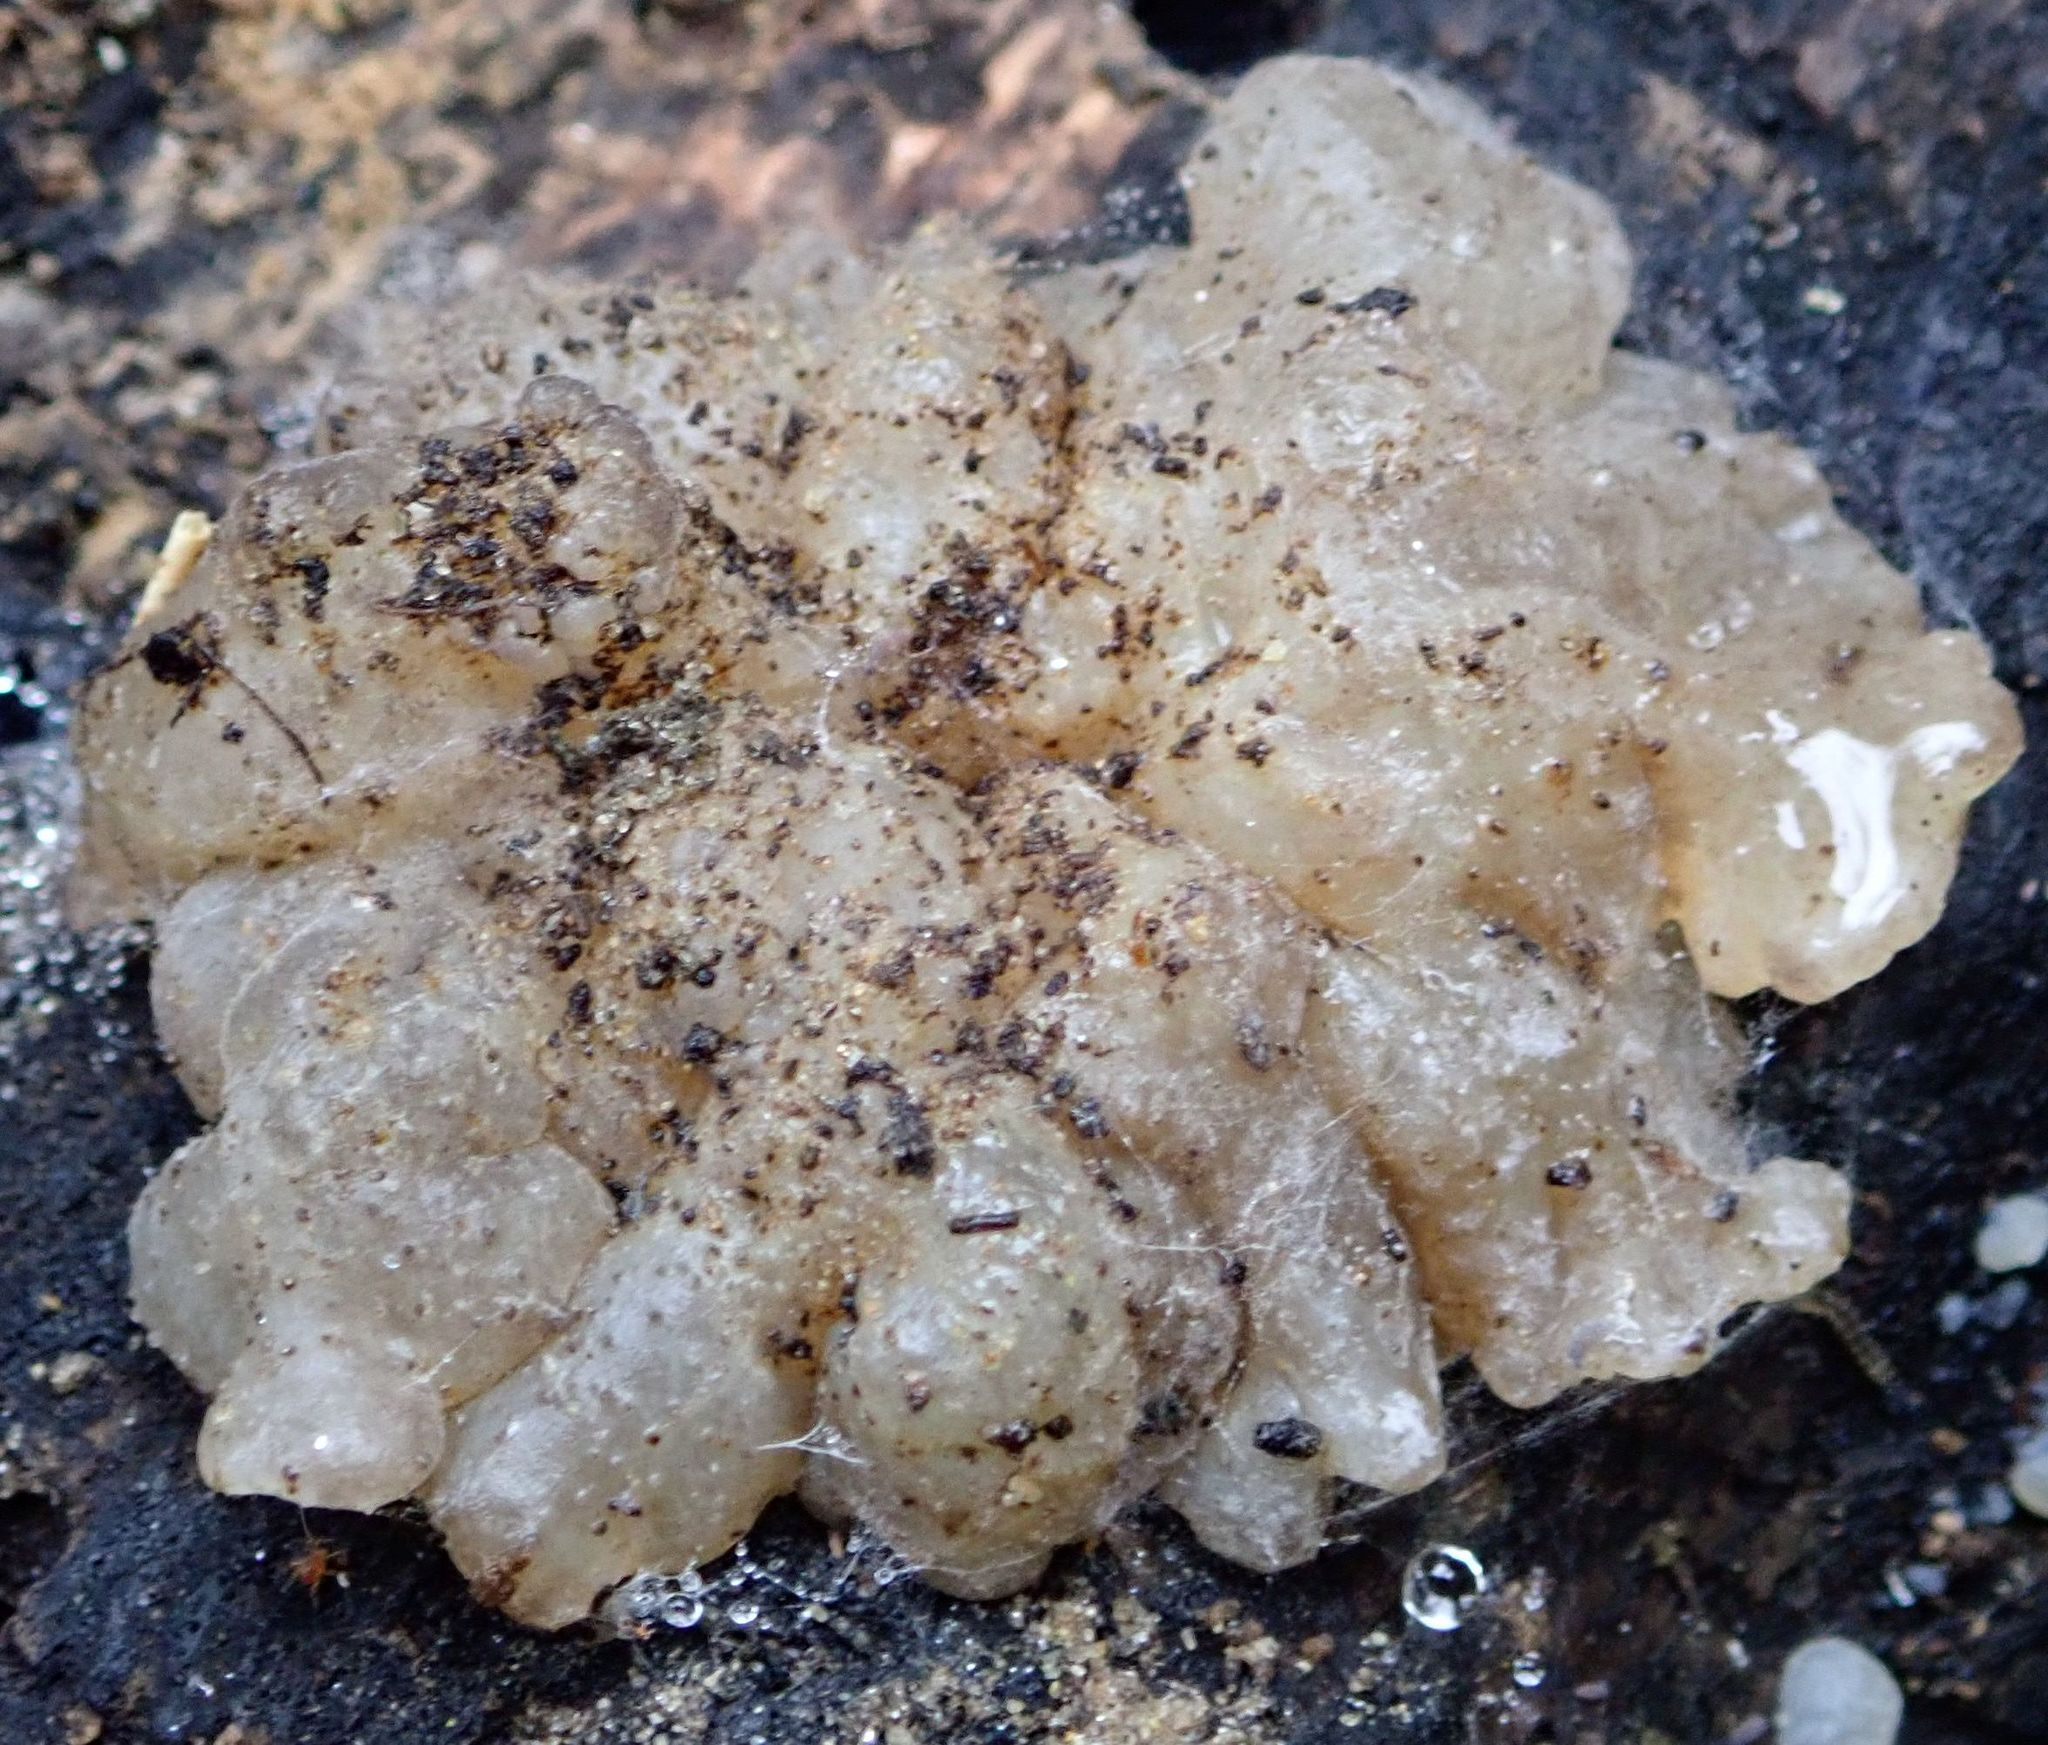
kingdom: Fungi
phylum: Basidiomycota
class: Agaricomycetes
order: Auriculariales
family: Auriculariaceae
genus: Tremellochaete
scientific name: Tremellochaete
